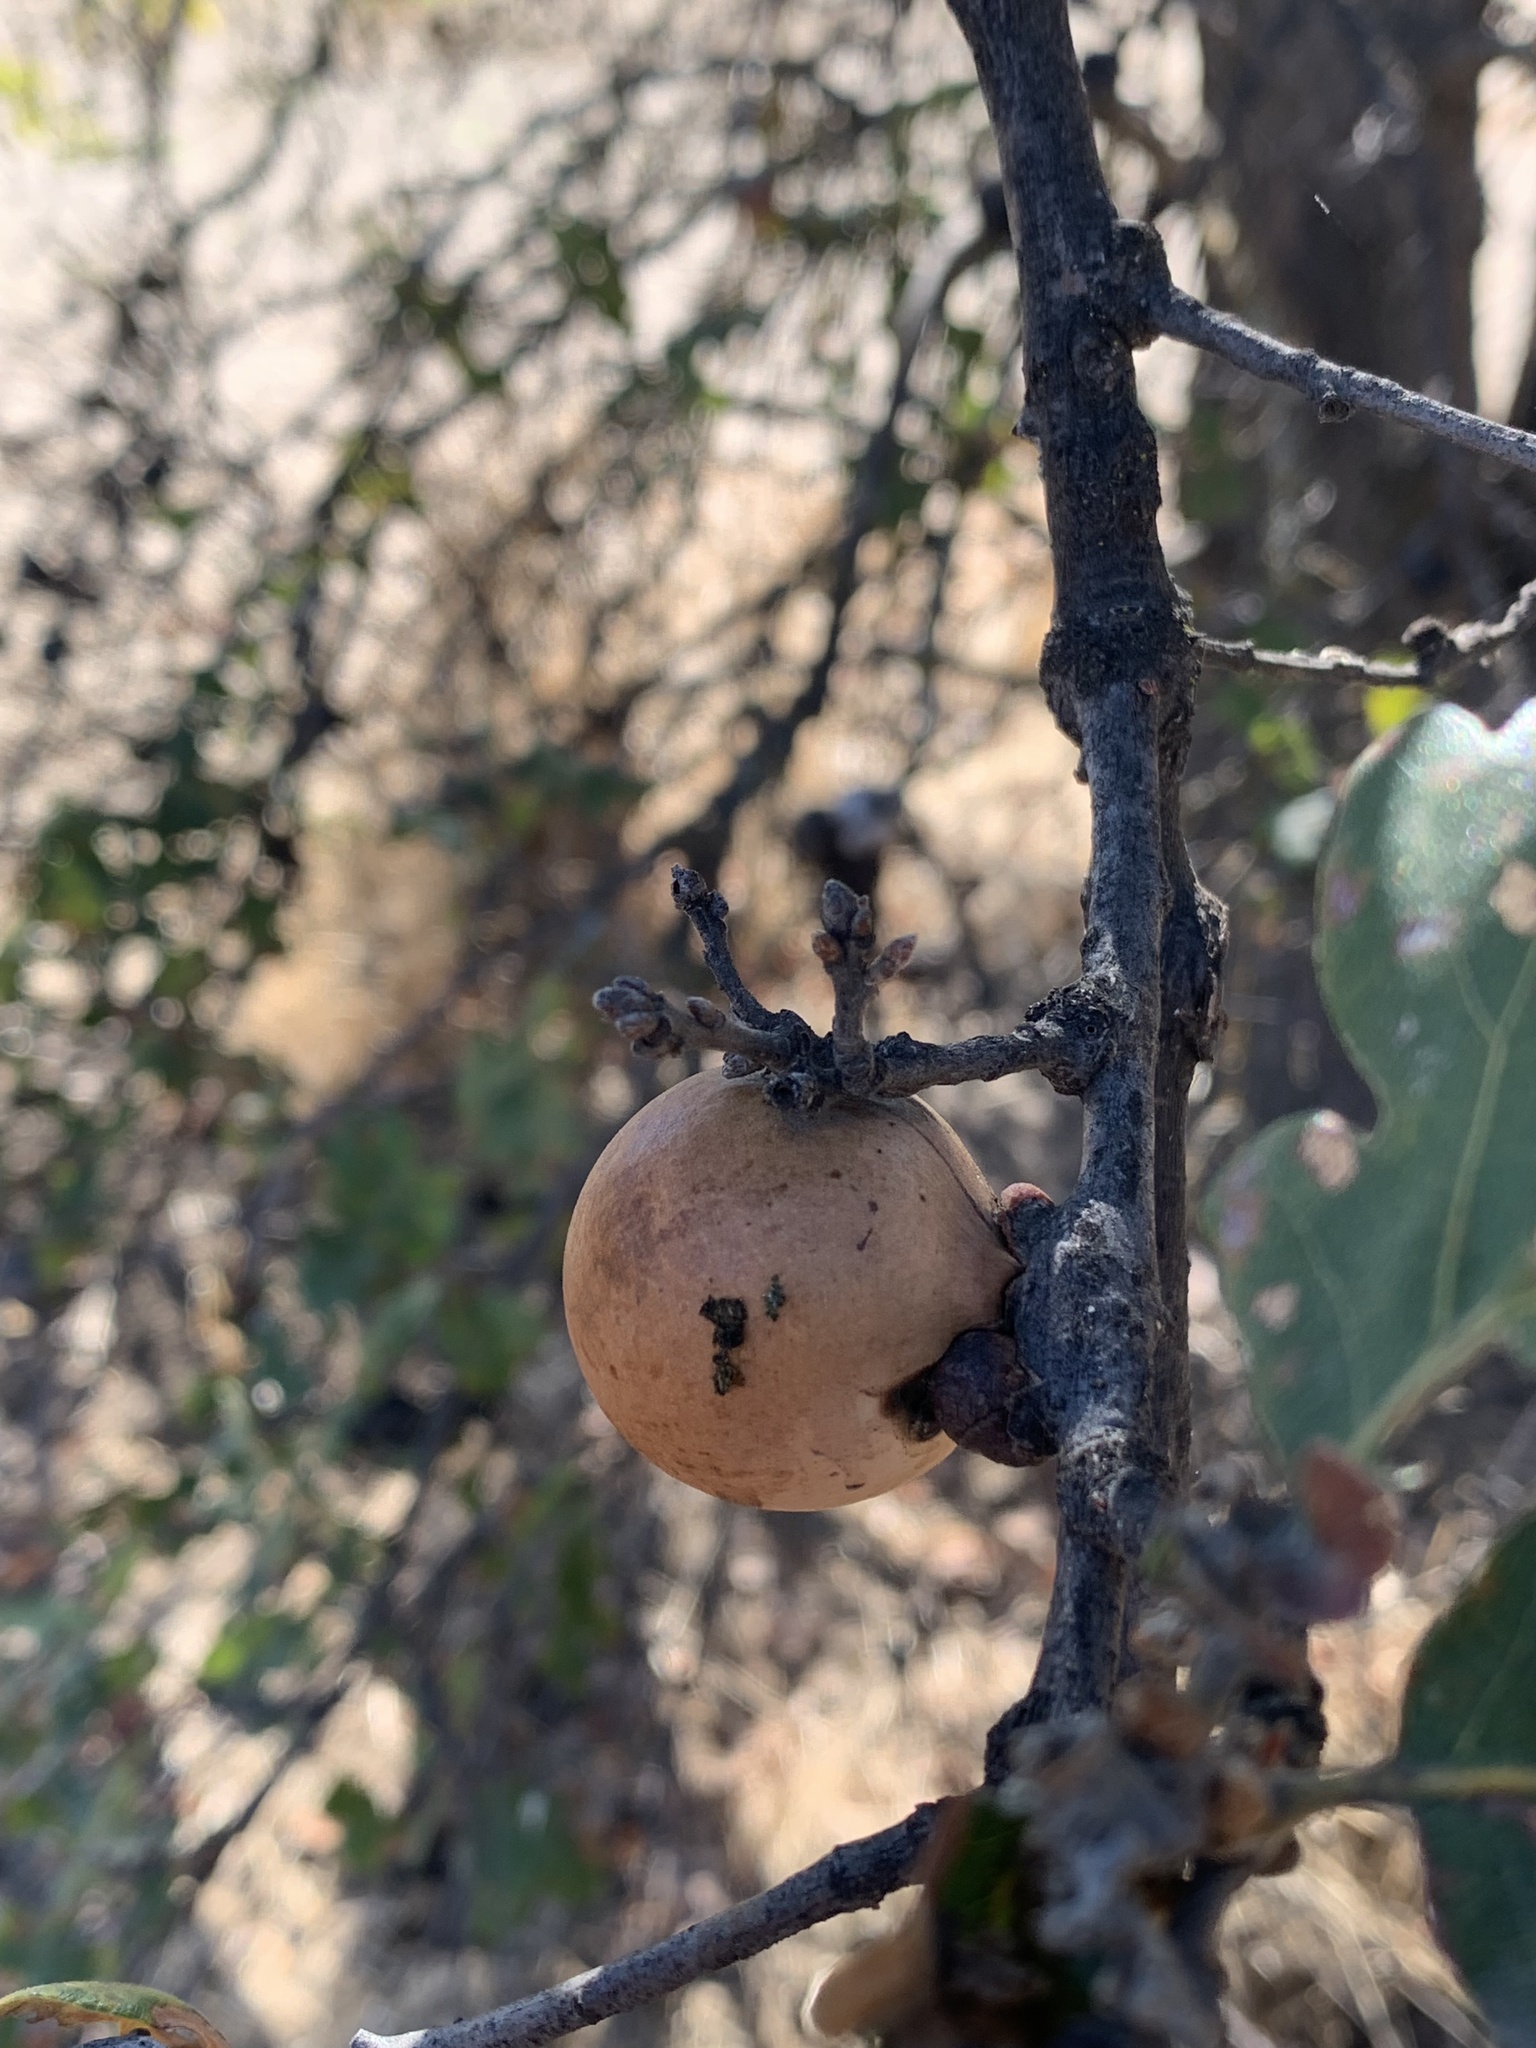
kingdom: Animalia
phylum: Arthropoda
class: Insecta
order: Hymenoptera
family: Cynipidae
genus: Andricus
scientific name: Andricus quercuscalifornicus
